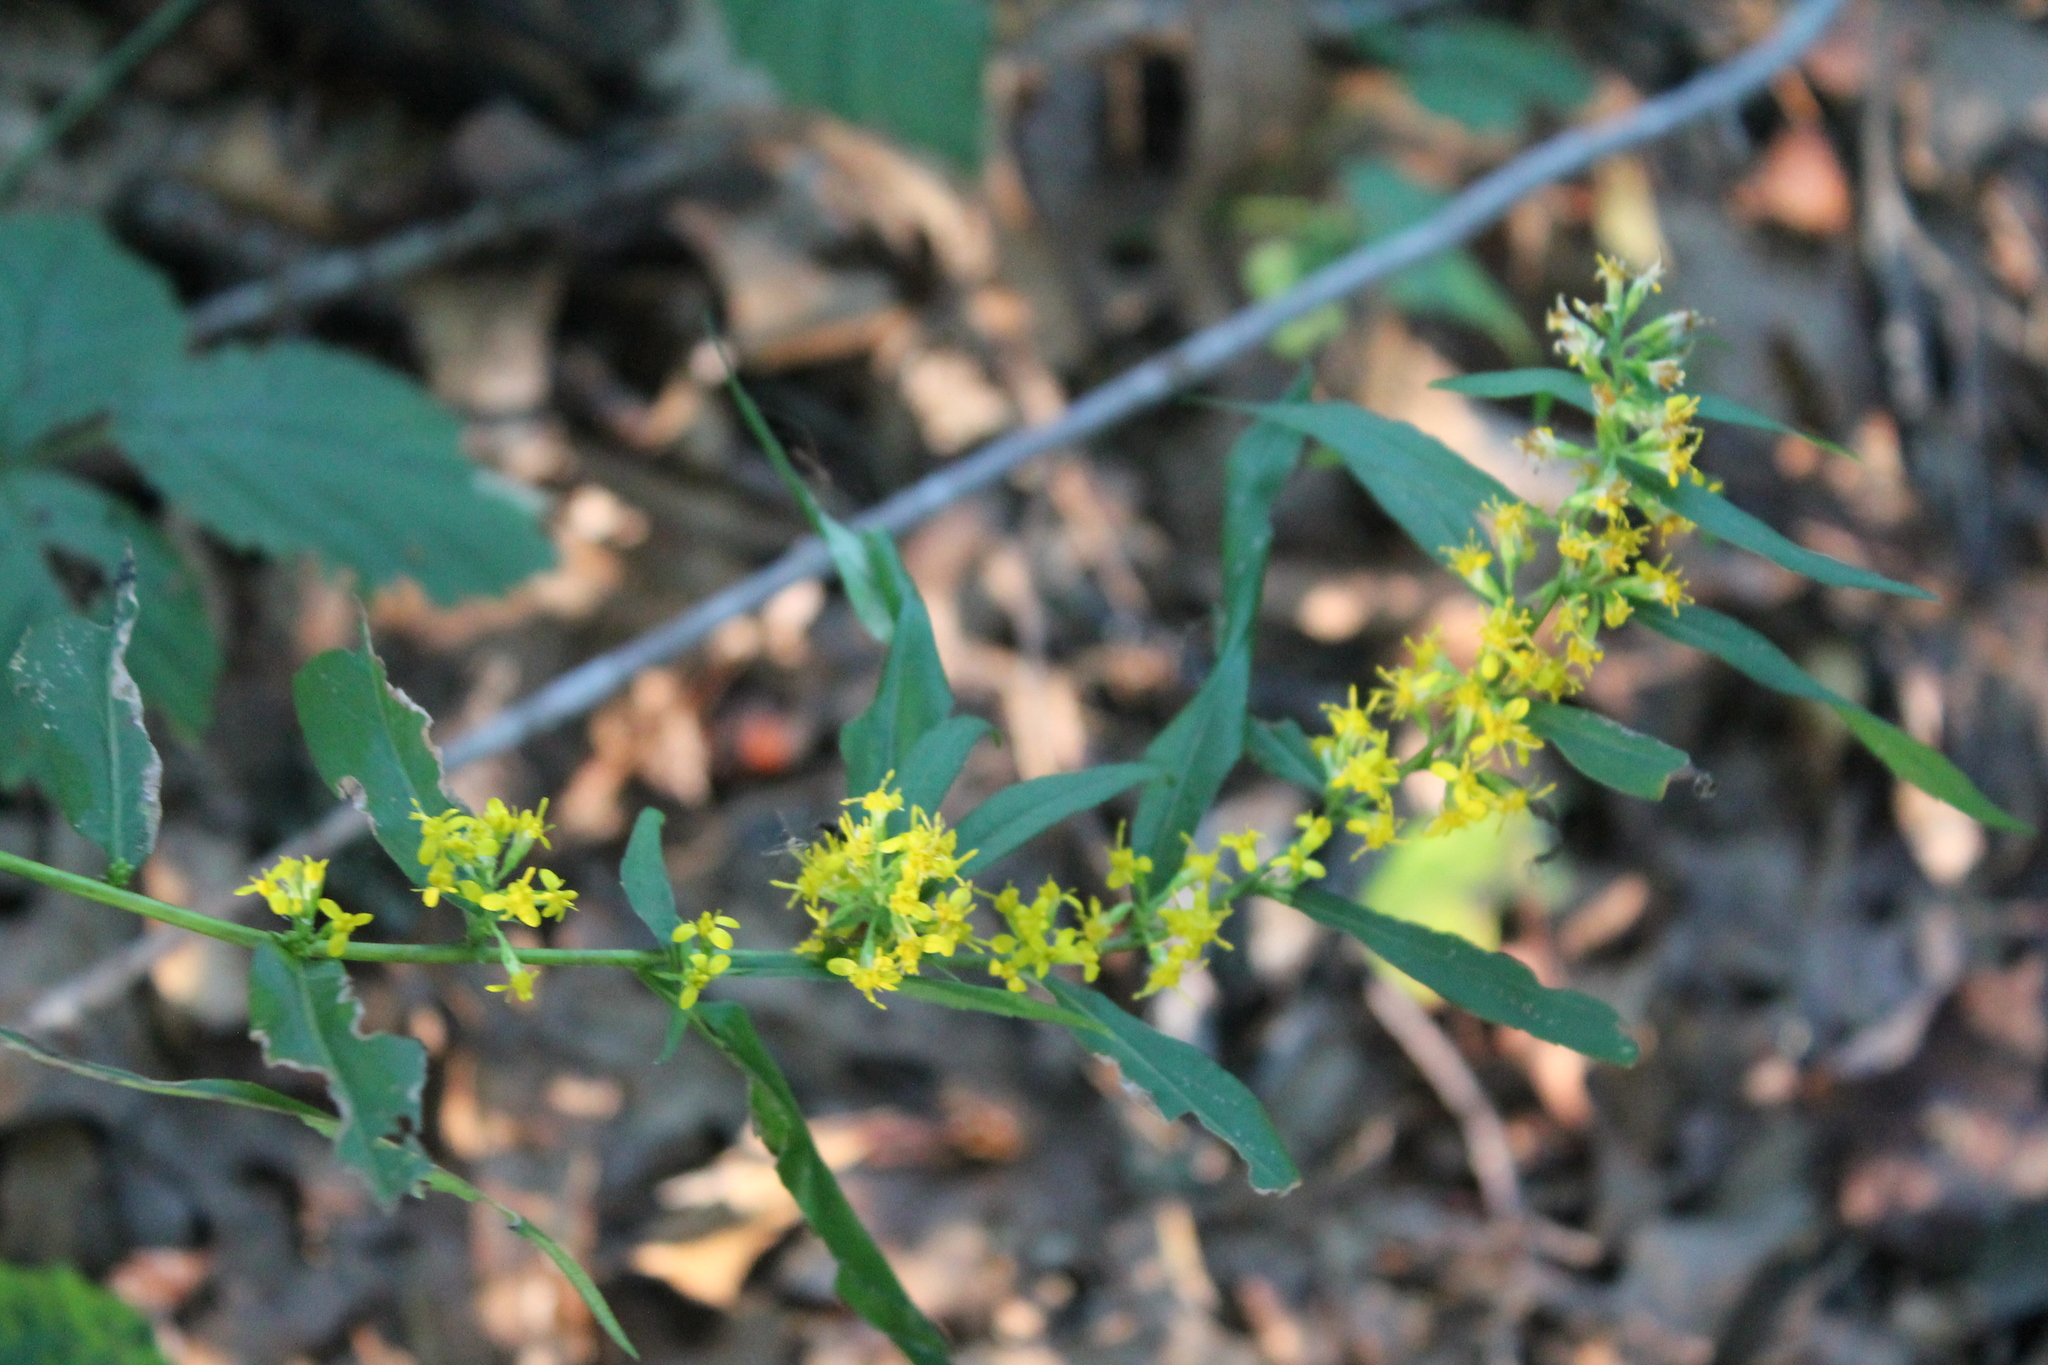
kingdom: Plantae
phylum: Tracheophyta
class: Magnoliopsida
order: Asterales
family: Asteraceae
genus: Solidago
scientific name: Solidago caesia
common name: Woodland goldenrod
